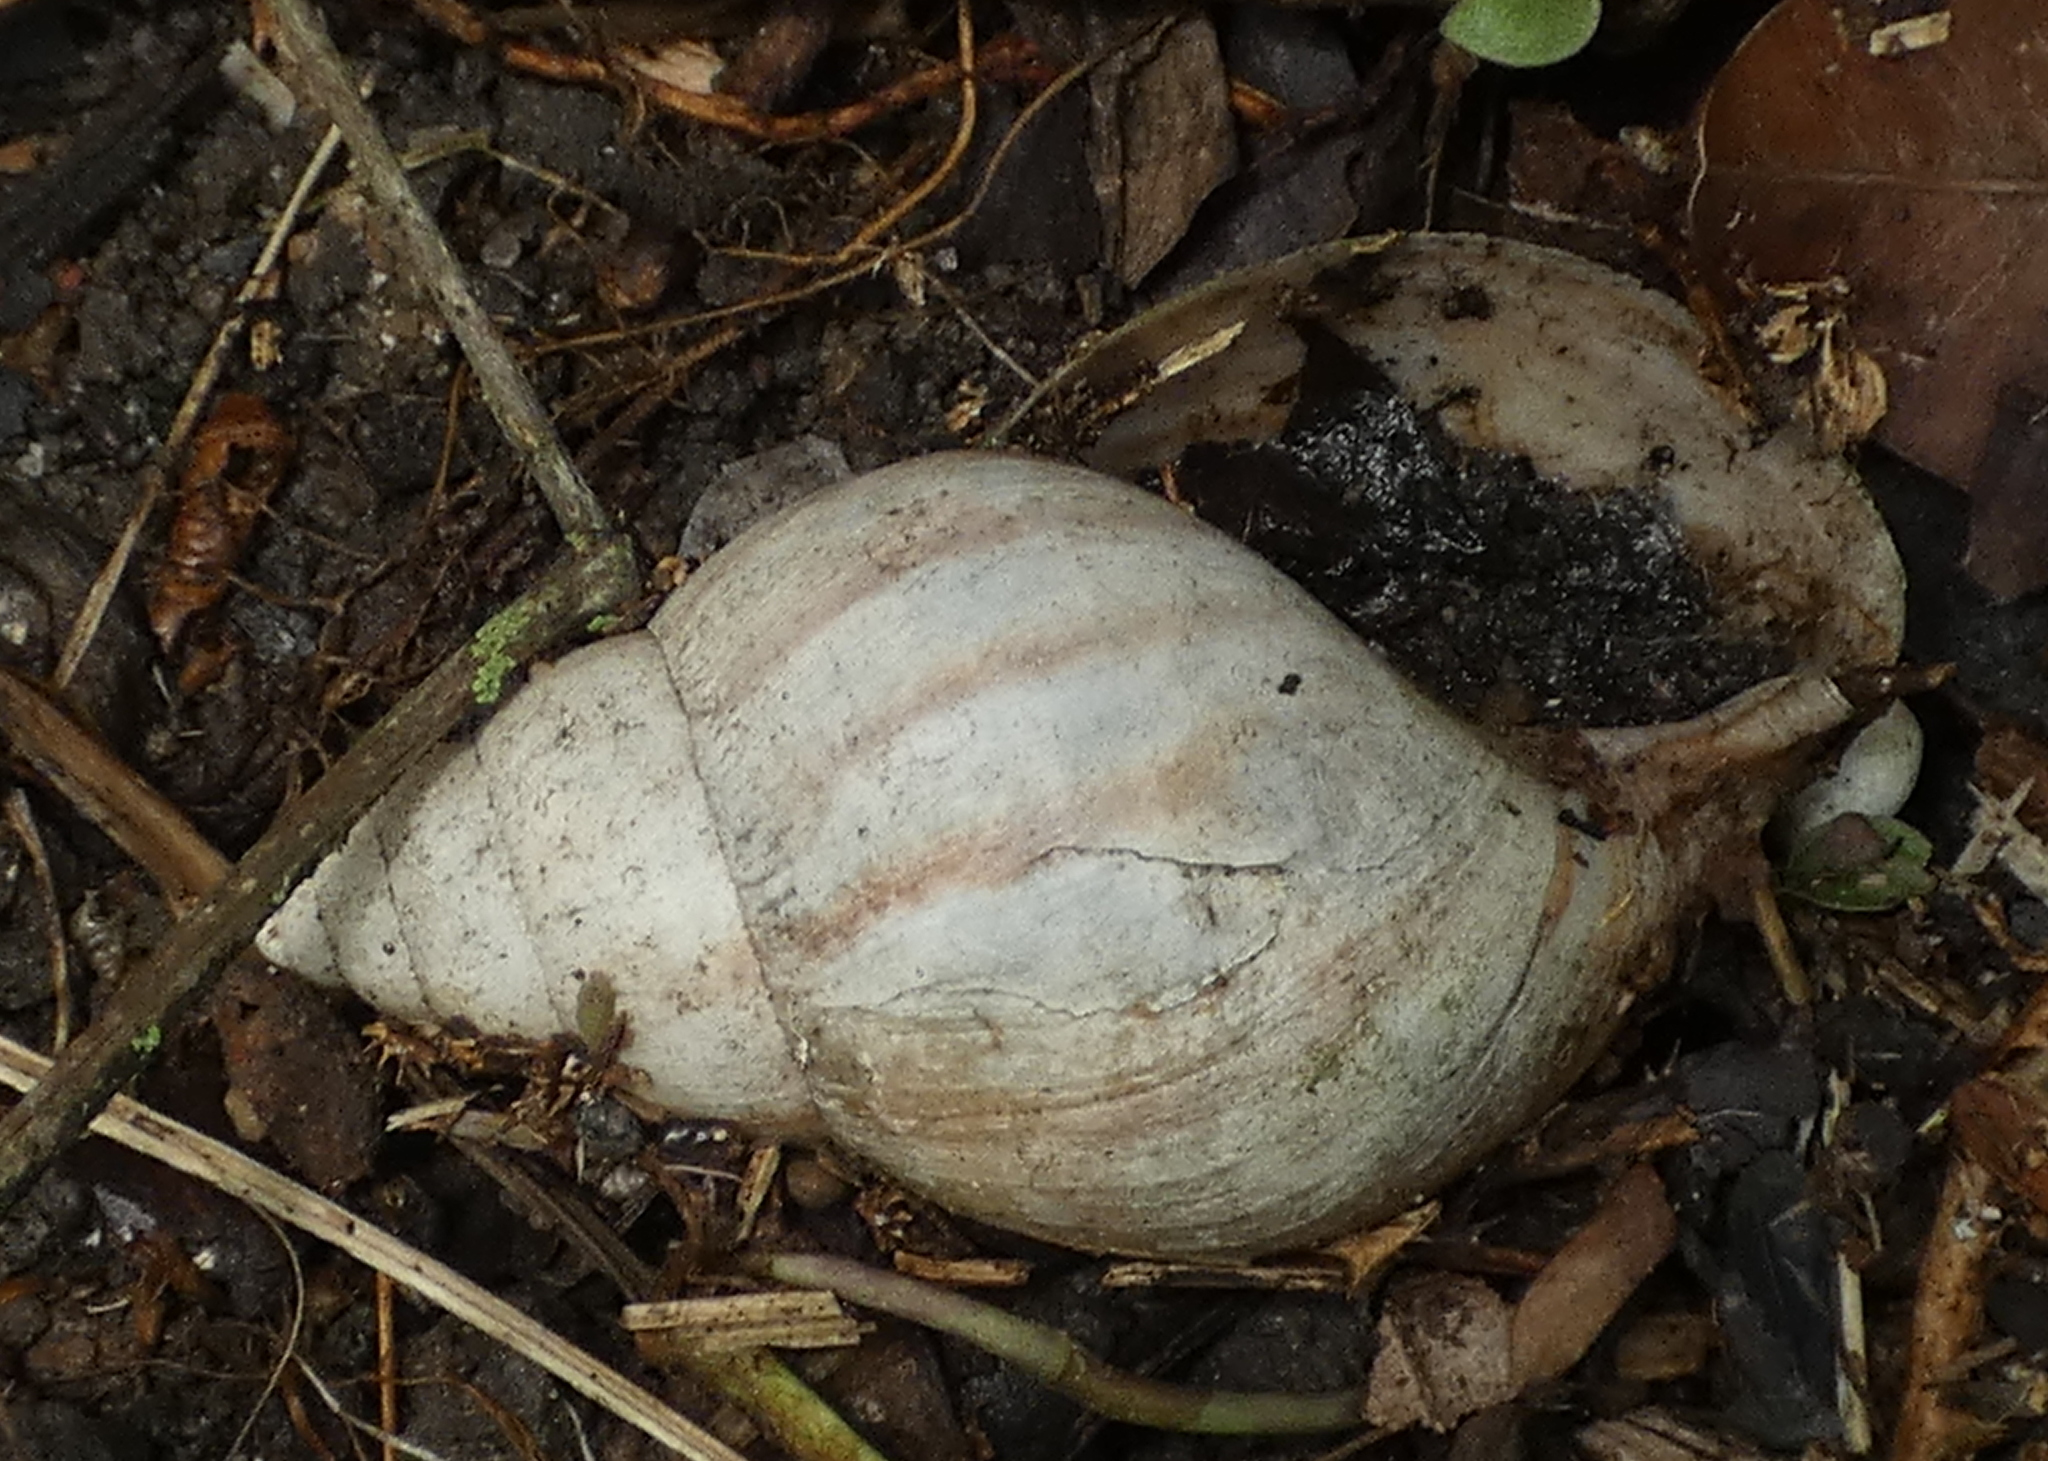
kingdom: Animalia
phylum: Mollusca
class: Gastropoda
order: Stylommatophora
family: Achatinidae
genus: Lissachatina
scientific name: Lissachatina fulica
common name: Giant african snail
